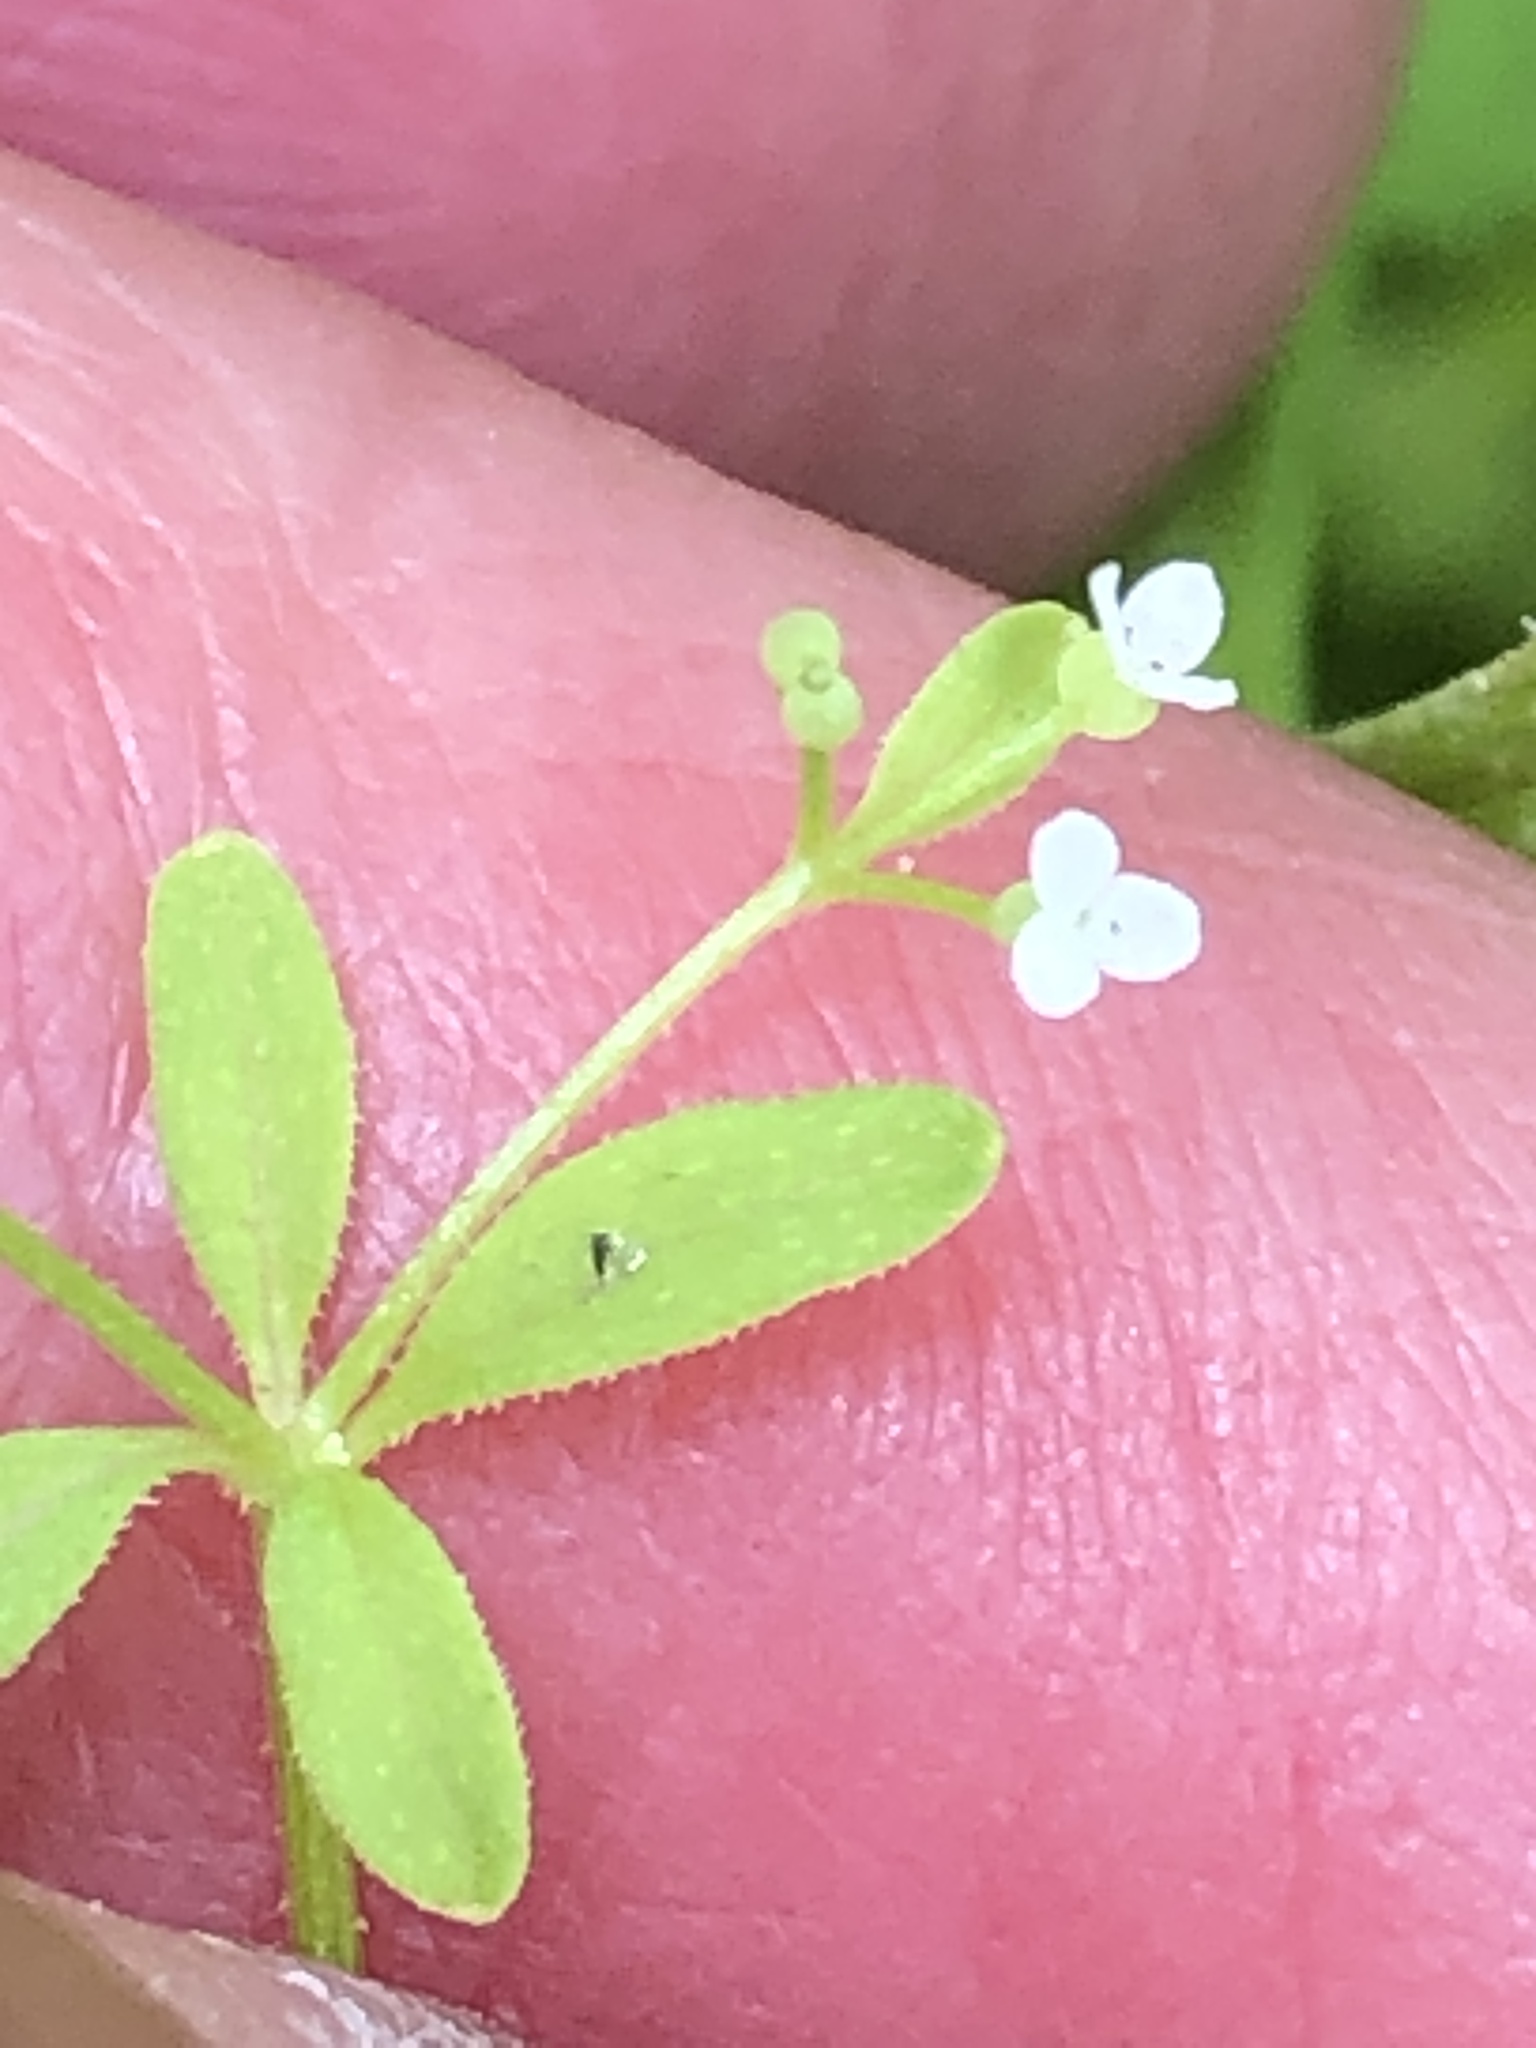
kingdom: Plantae
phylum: Tracheophyta
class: Magnoliopsida
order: Gentianales
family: Rubiaceae
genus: Galium
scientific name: Galium tinctorium
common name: Bedstraw
